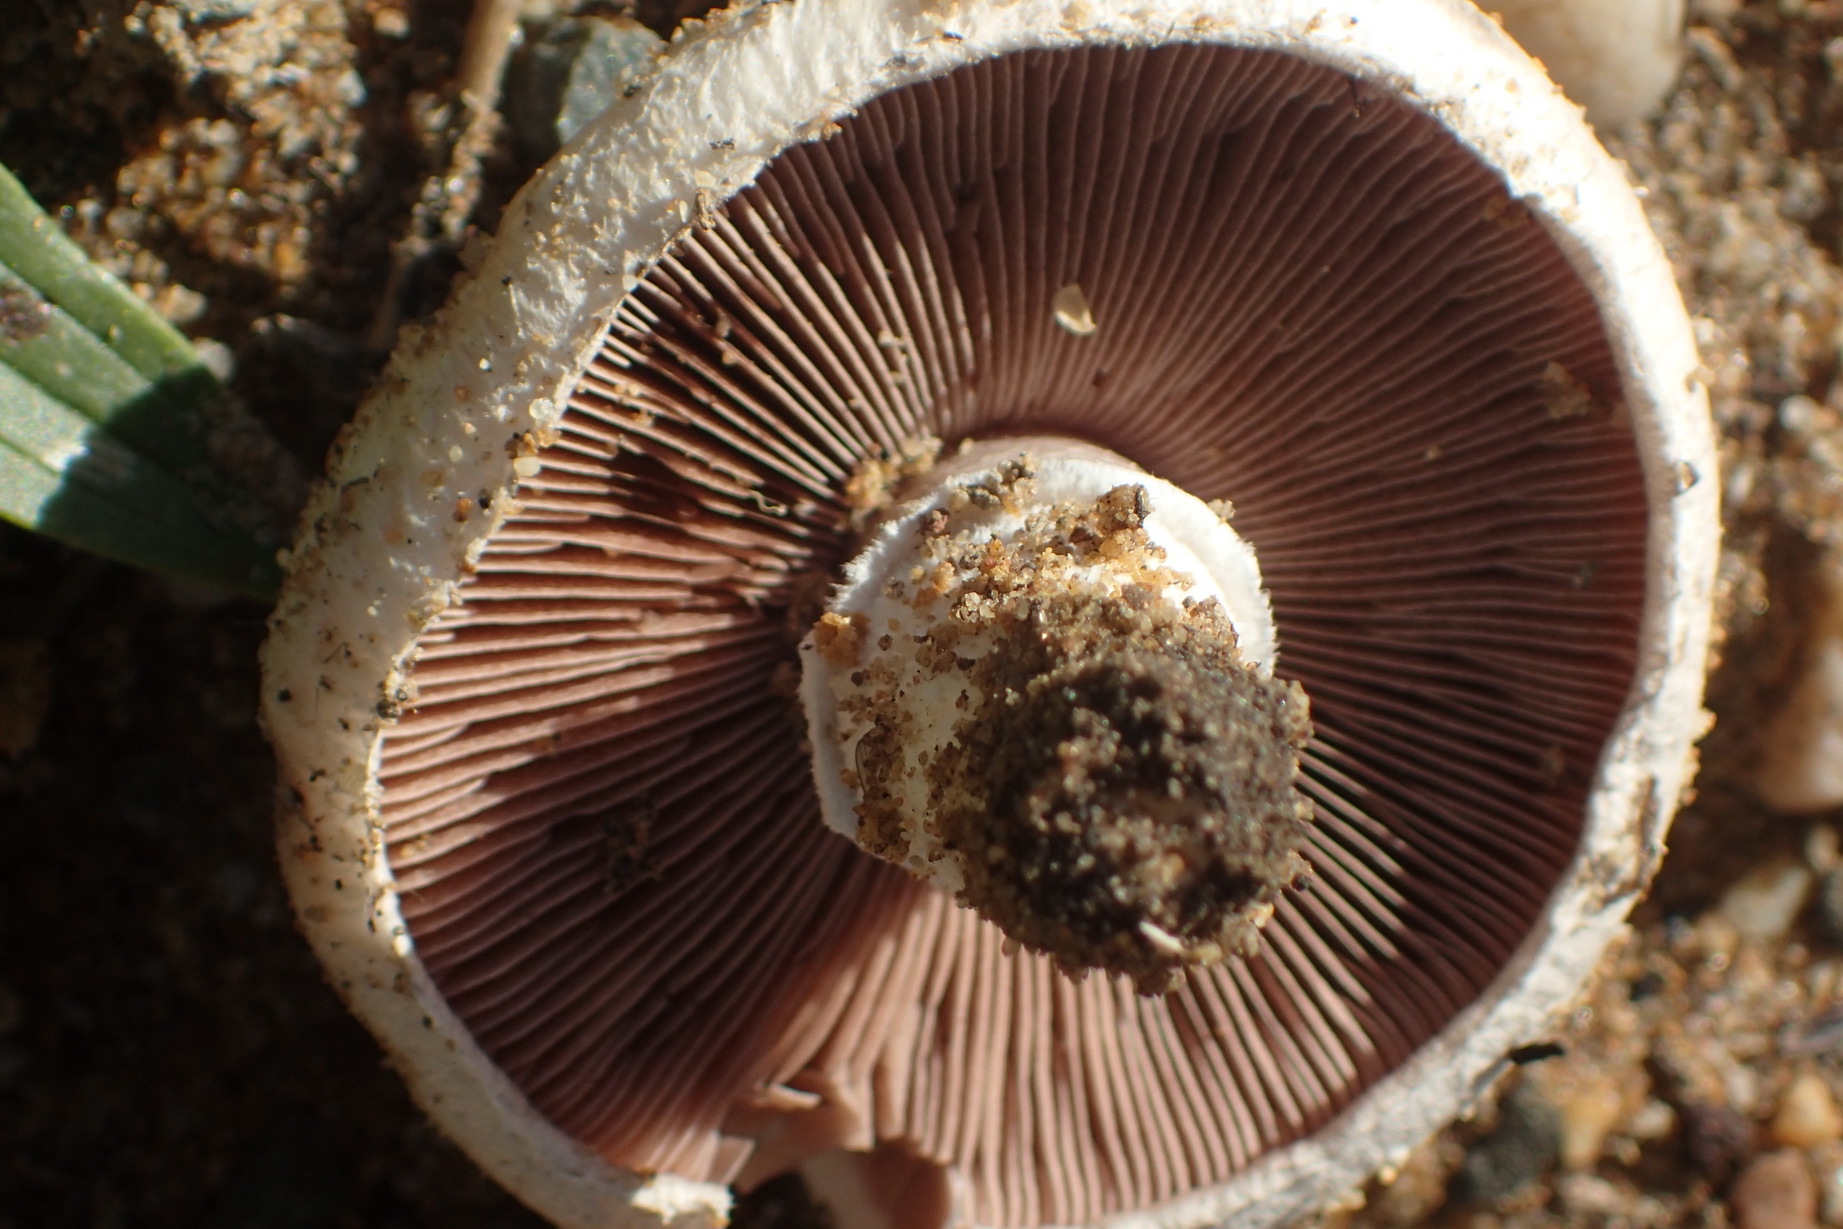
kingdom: Fungi
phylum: Basidiomycota
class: Agaricomycetes
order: Agaricales
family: Agaricaceae
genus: Agaricus
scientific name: Agaricus campestris
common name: Field mushroom
